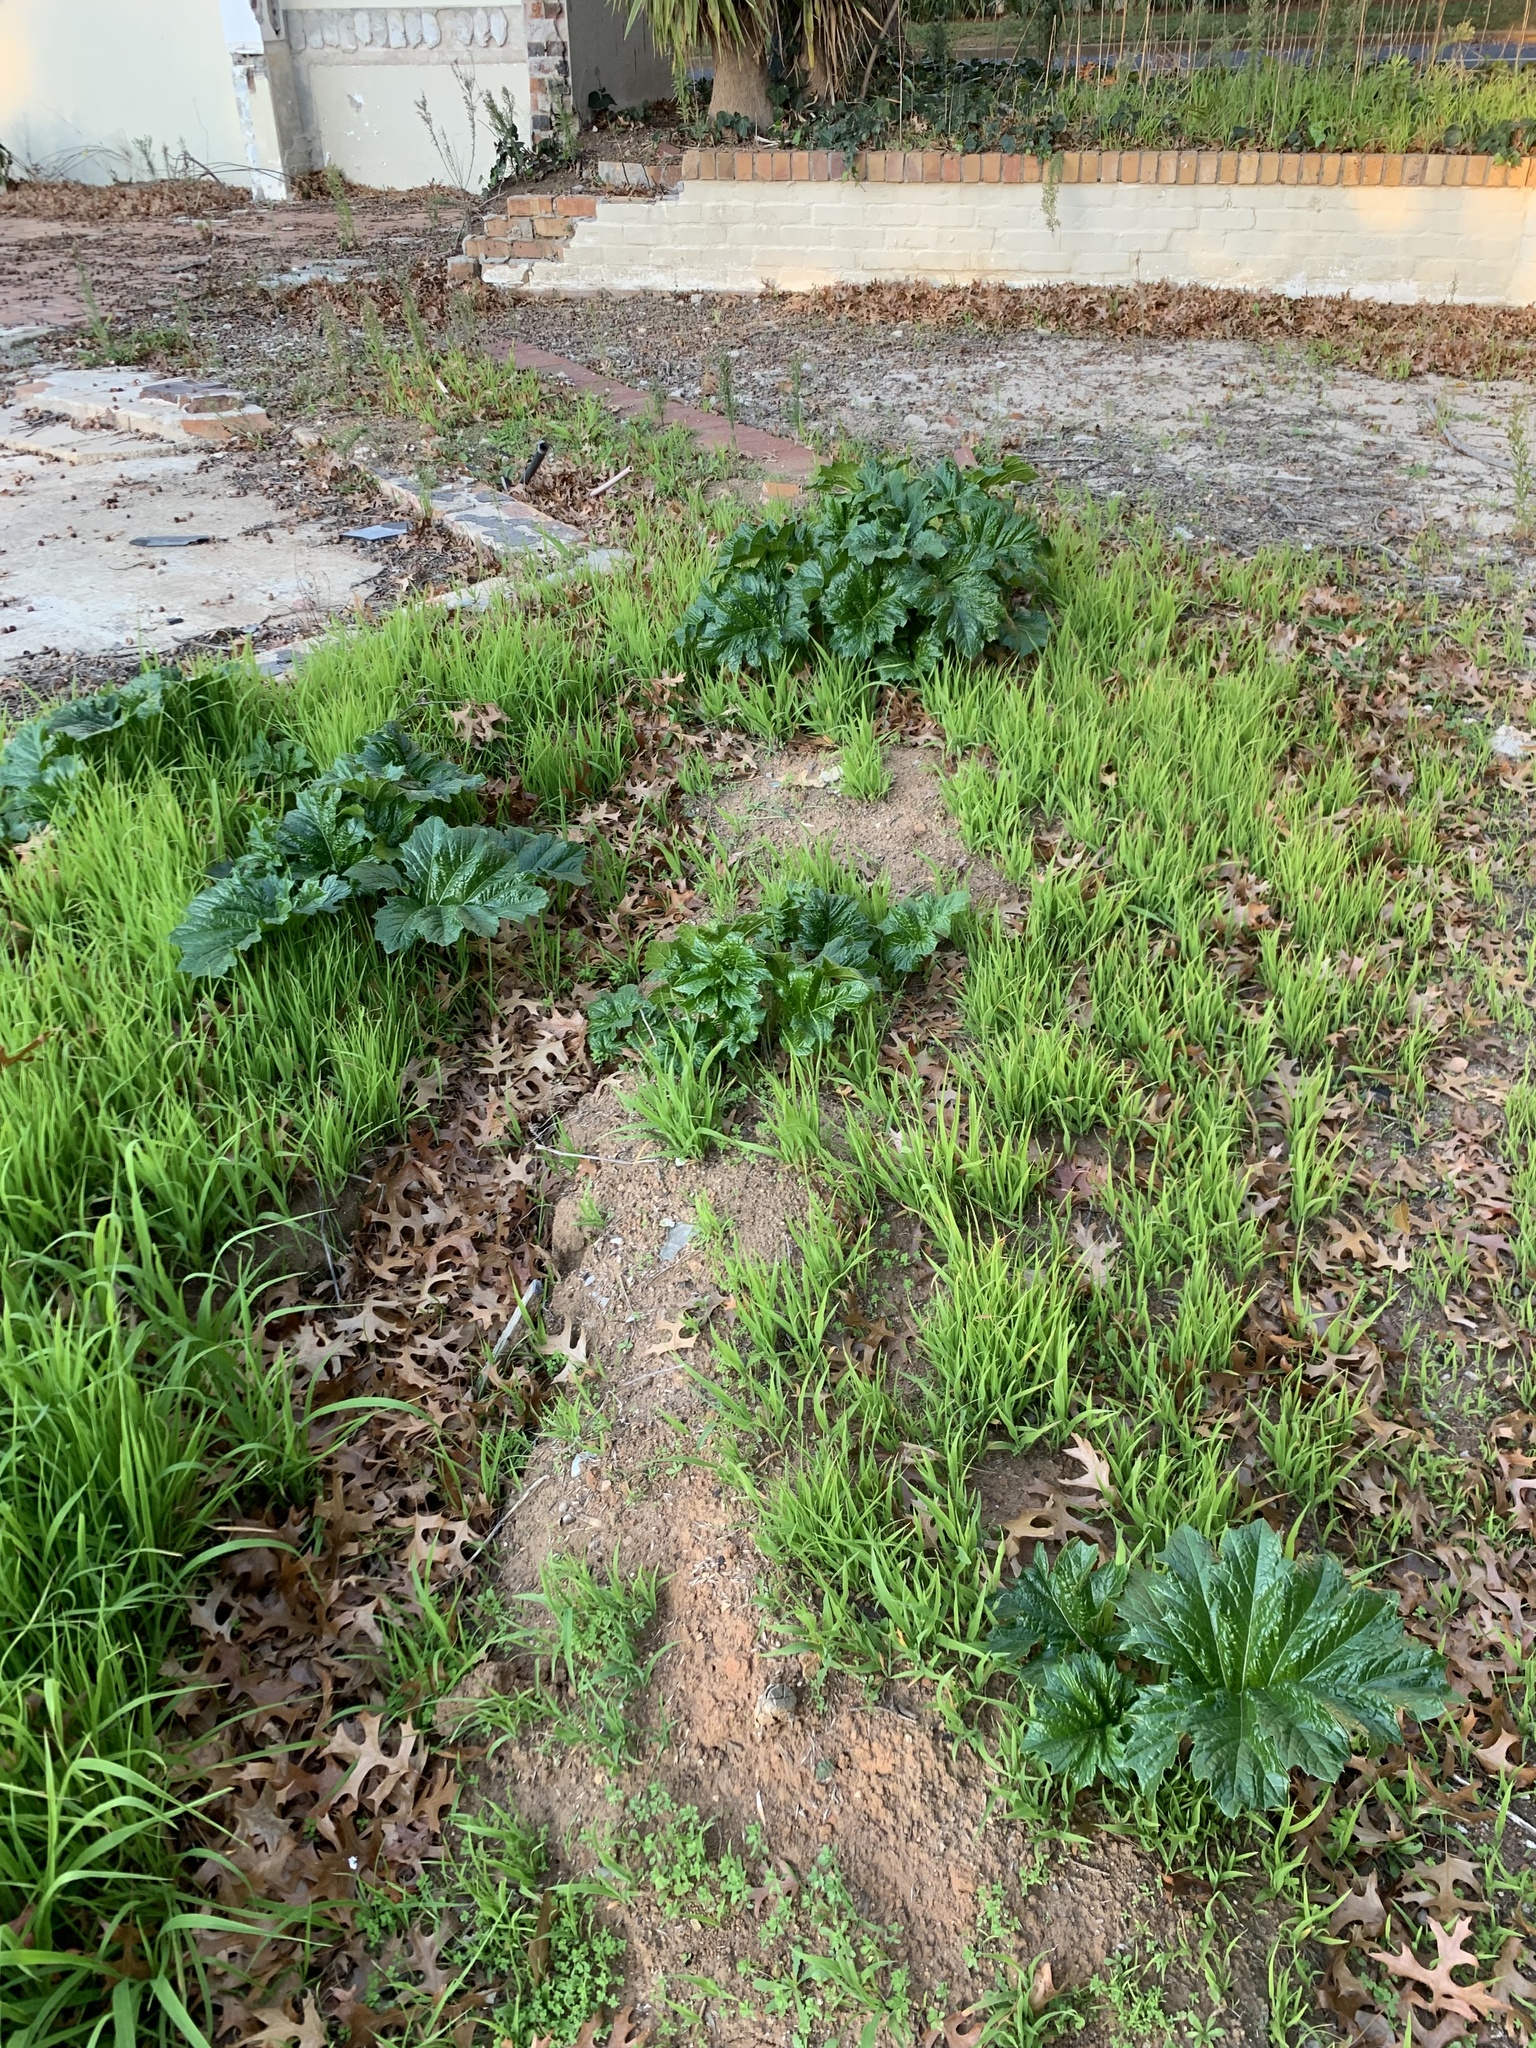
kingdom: Plantae
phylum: Tracheophyta
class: Magnoliopsida
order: Lamiales
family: Acanthaceae
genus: Acanthus
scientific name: Acanthus mollis
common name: Bear's-breech
